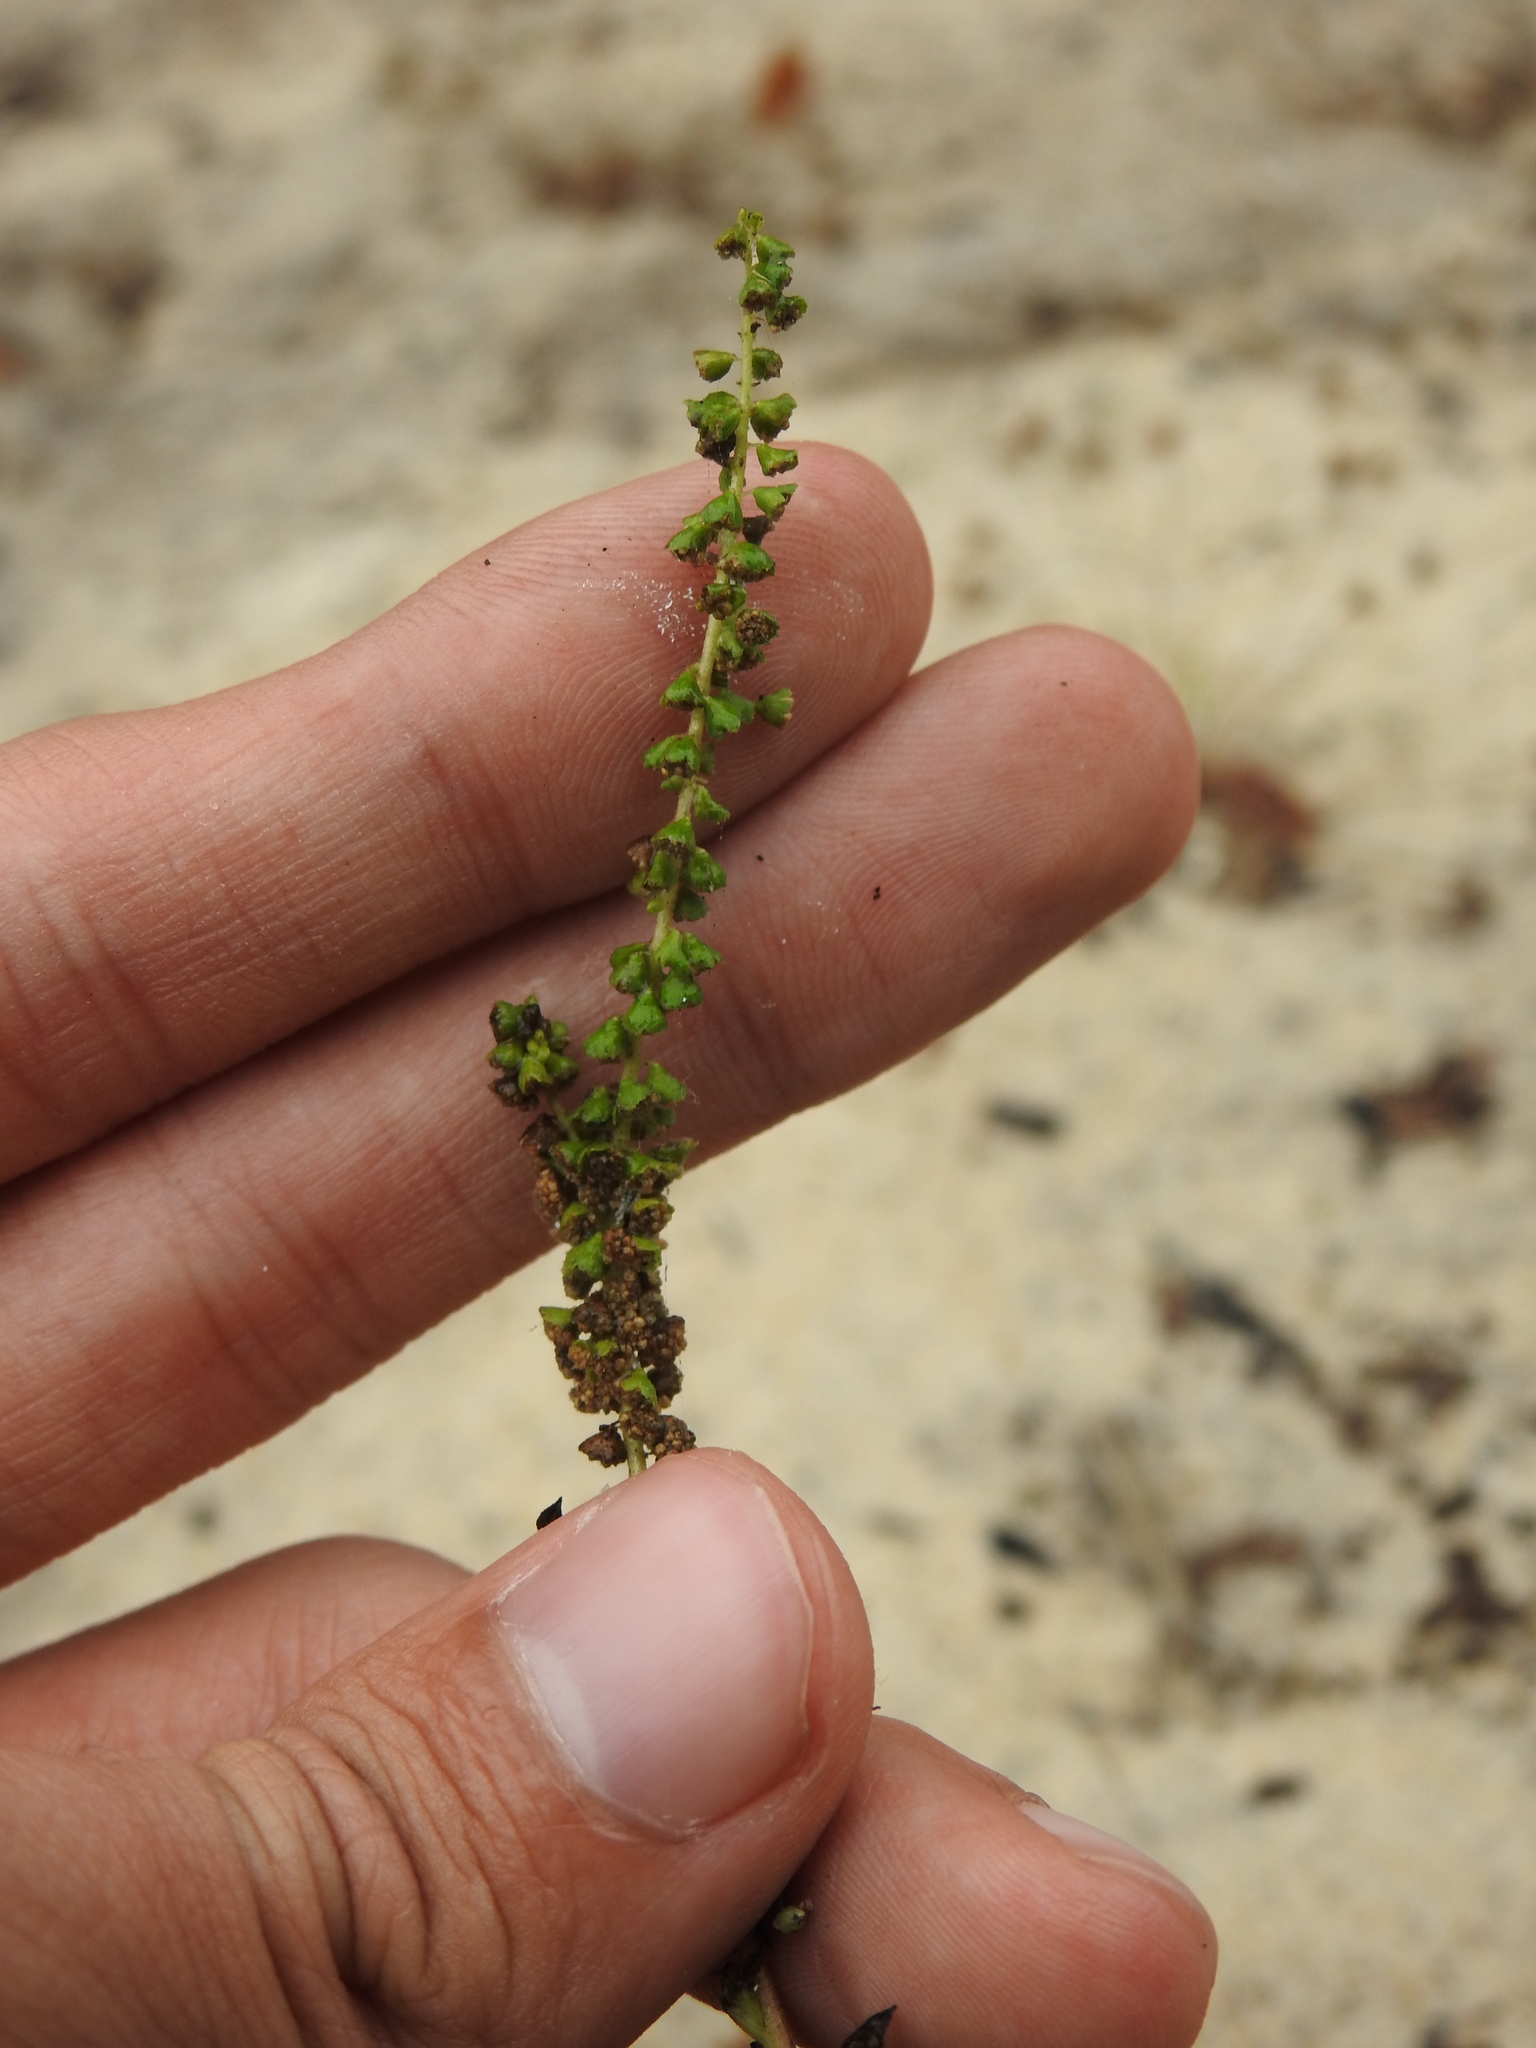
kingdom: Plantae
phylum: Tracheophyta
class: Magnoliopsida
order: Asterales
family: Asteraceae
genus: Ambrosia
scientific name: Ambrosia artemisiifolia
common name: Annual ragweed
